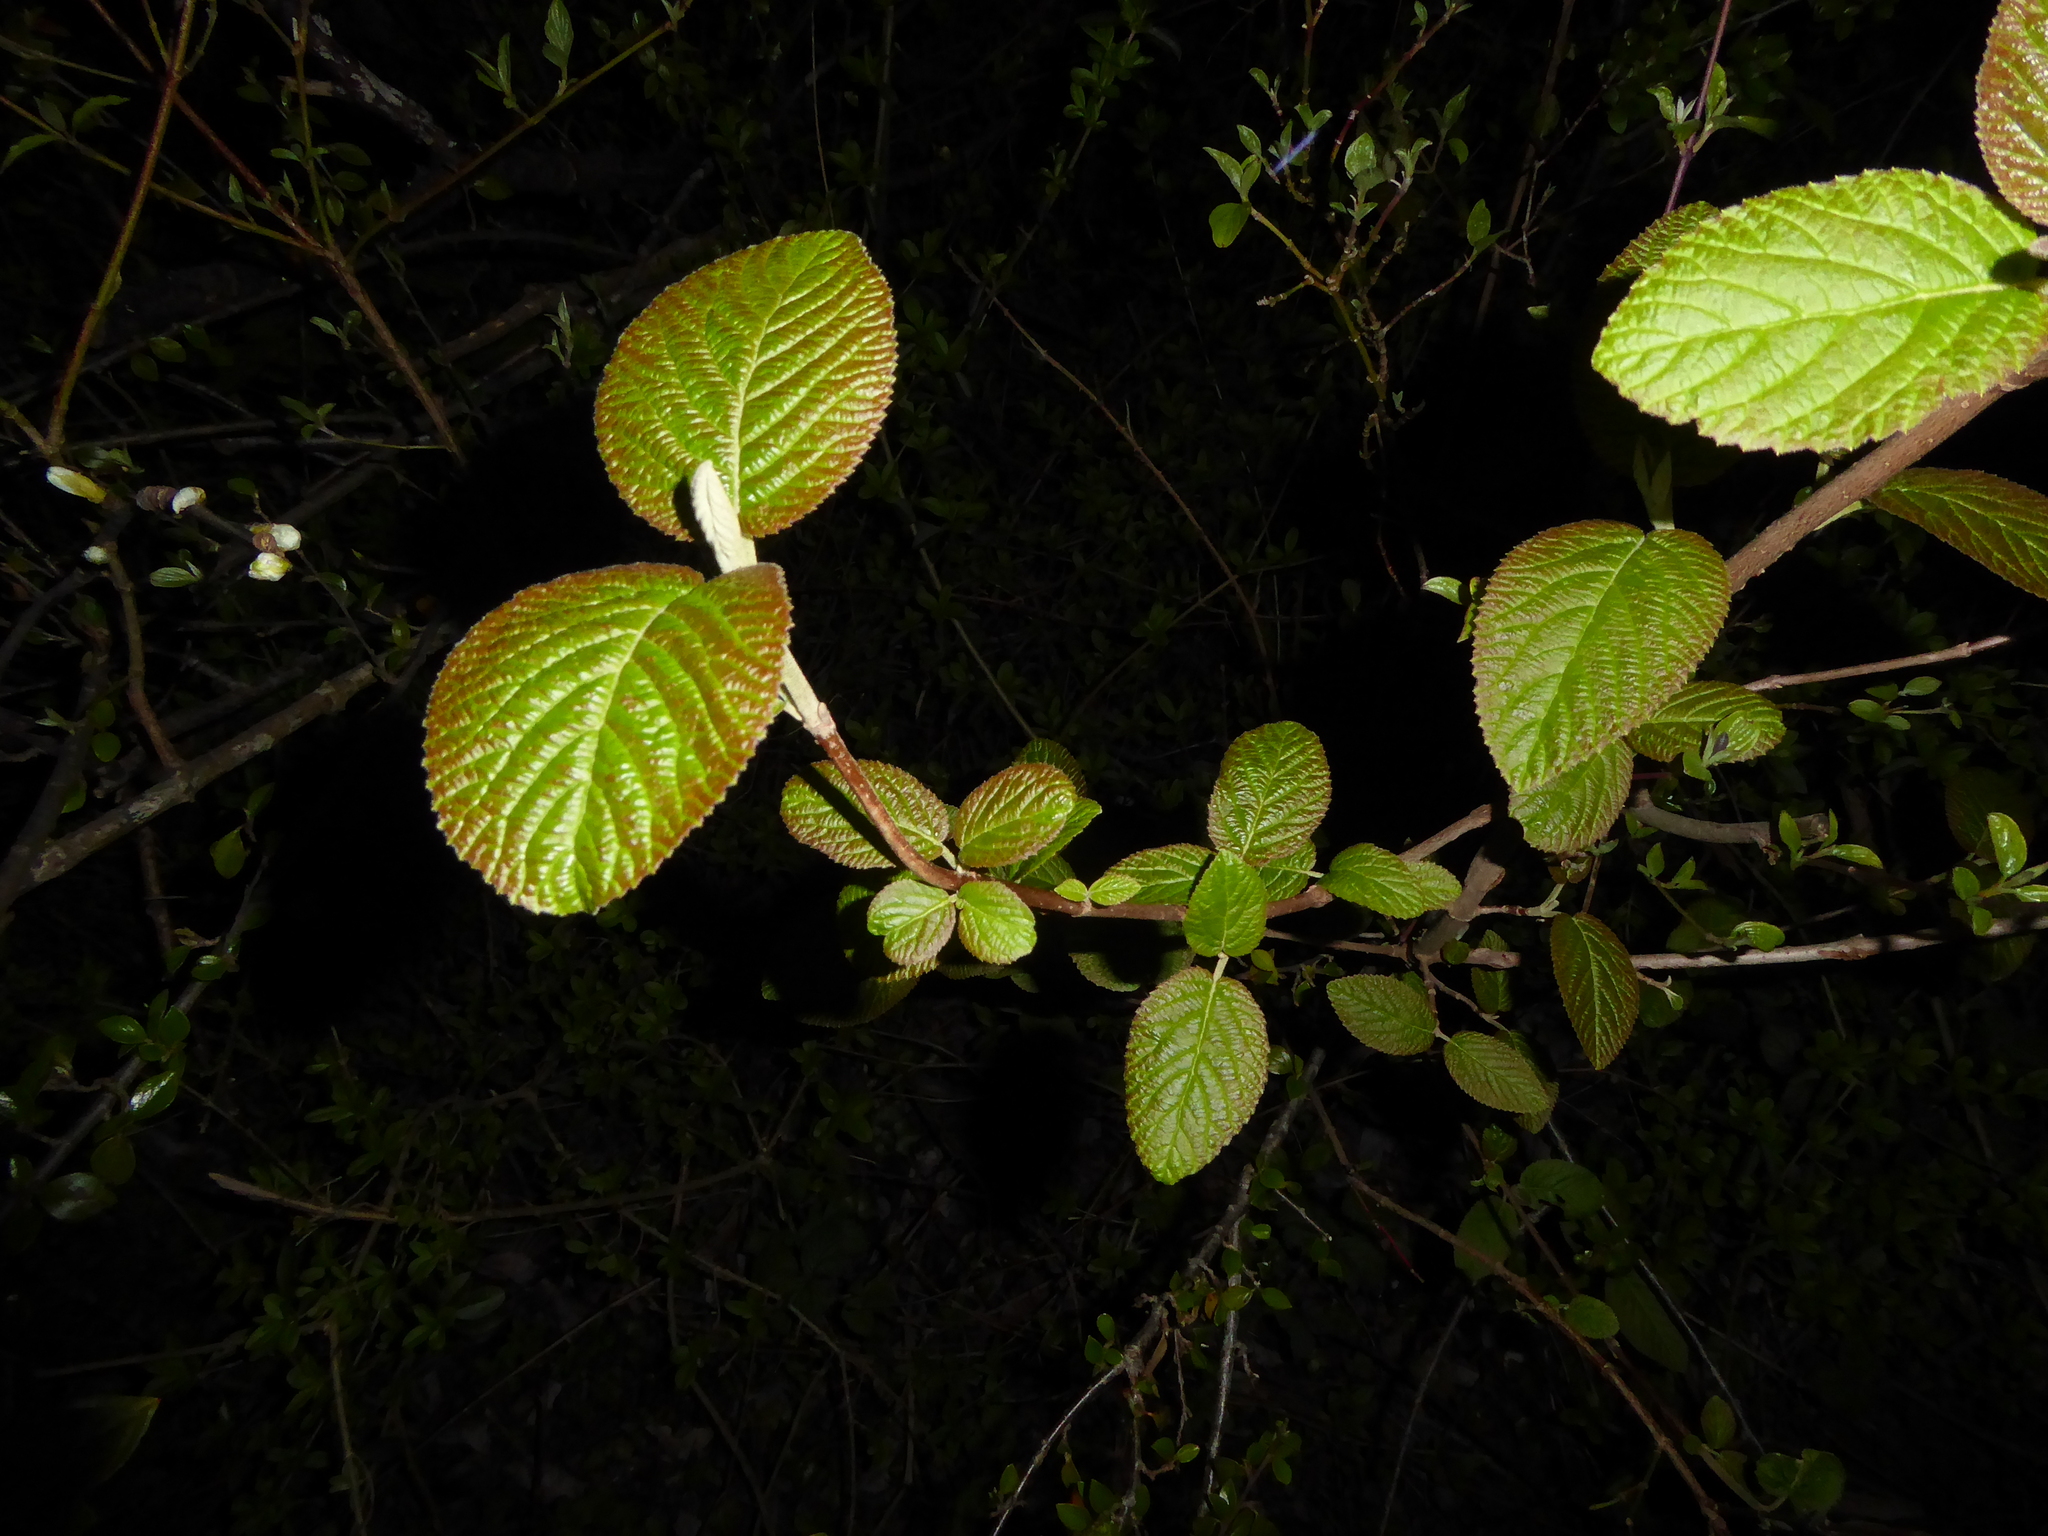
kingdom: Plantae
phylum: Tracheophyta
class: Magnoliopsida
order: Dipsacales
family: Viburnaceae
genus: Viburnum
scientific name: Viburnum lantana
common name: Wayfaring tree
